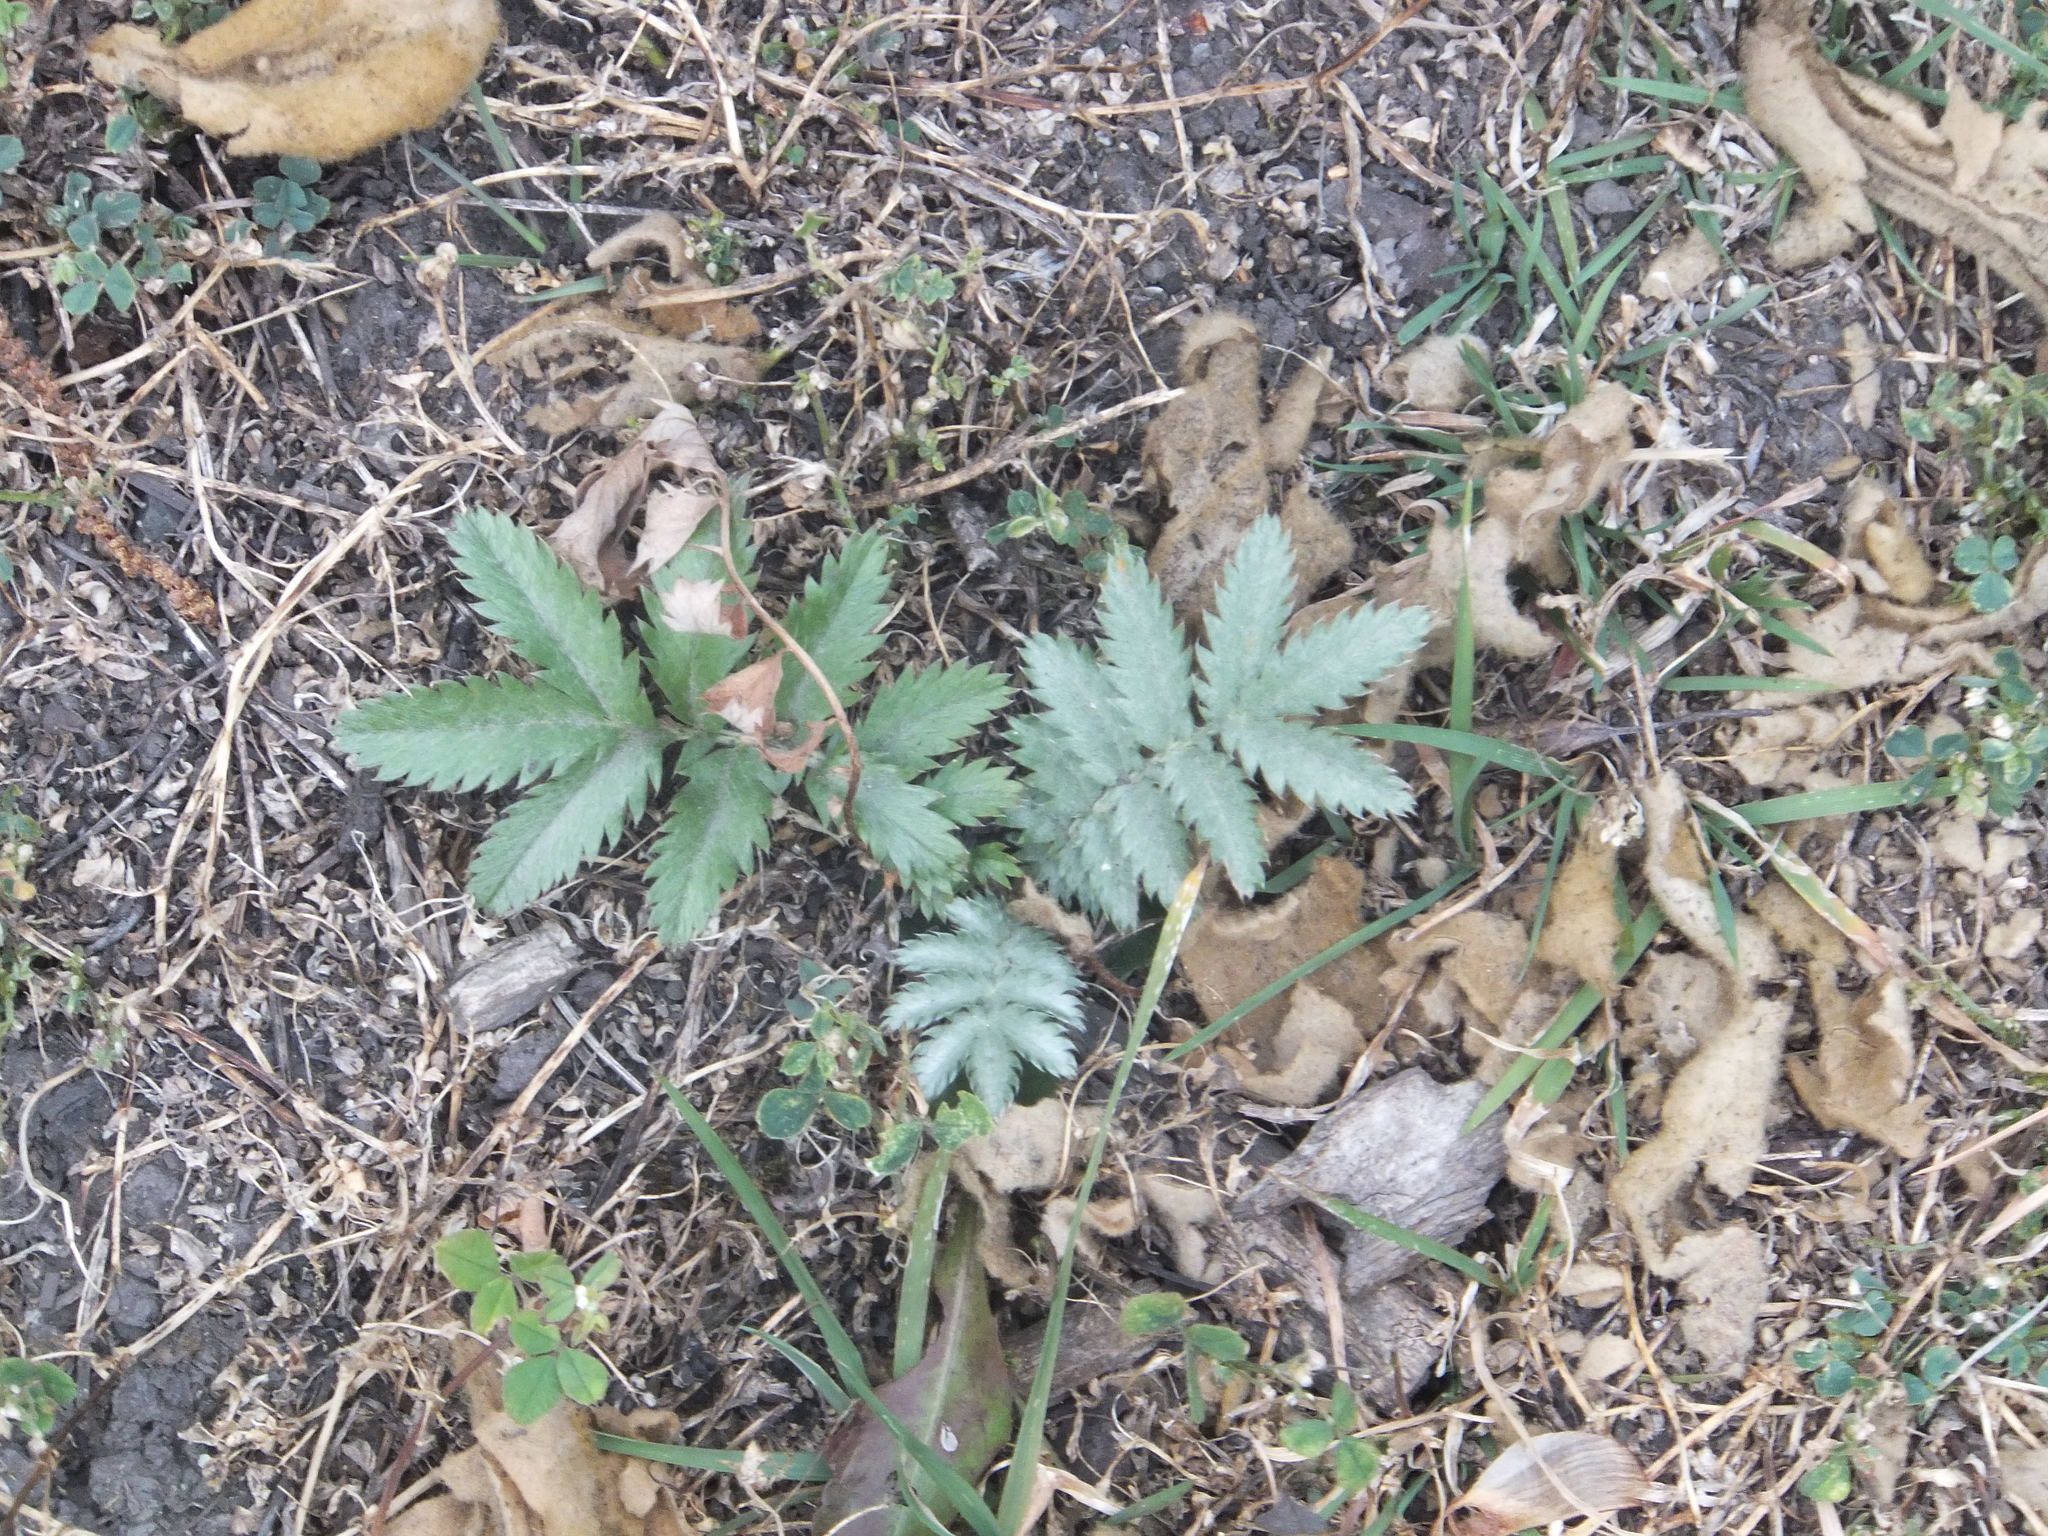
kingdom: Plantae
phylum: Tracheophyta
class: Magnoliopsida
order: Rosales
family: Rosaceae
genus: Argentina
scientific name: Argentina anserina
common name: Common silverweed
